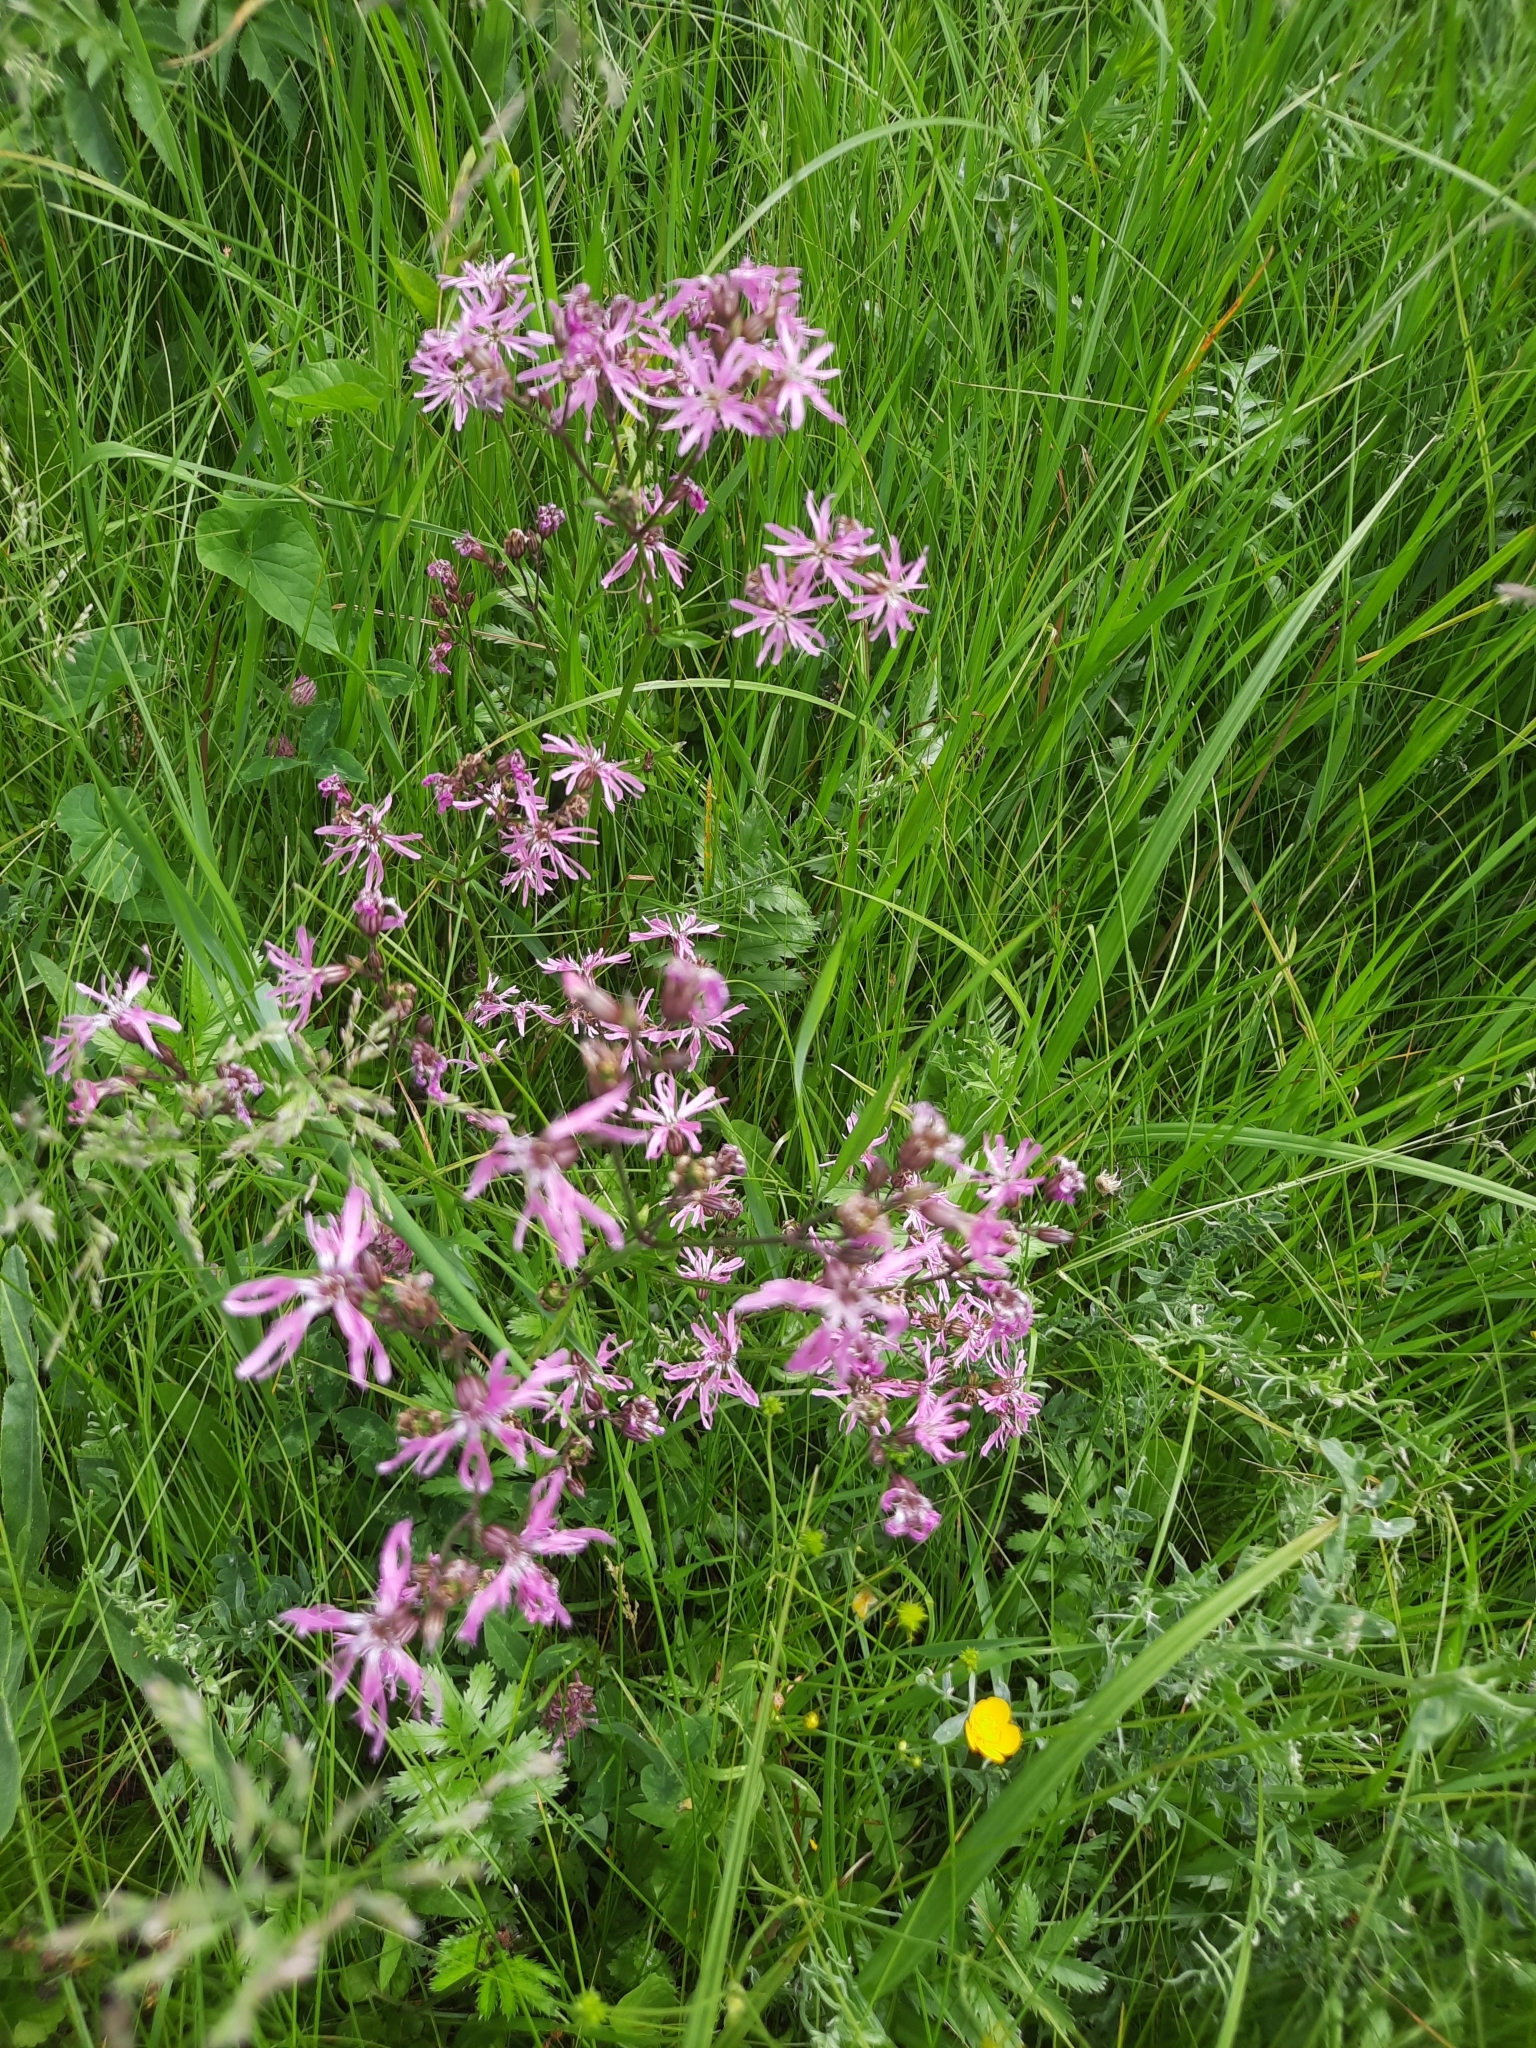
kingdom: Plantae
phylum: Tracheophyta
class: Magnoliopsida
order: Caryophyllales
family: Caryophyllaceae
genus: Silene
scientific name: Silene flos-cuculi
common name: Ragged-robin
